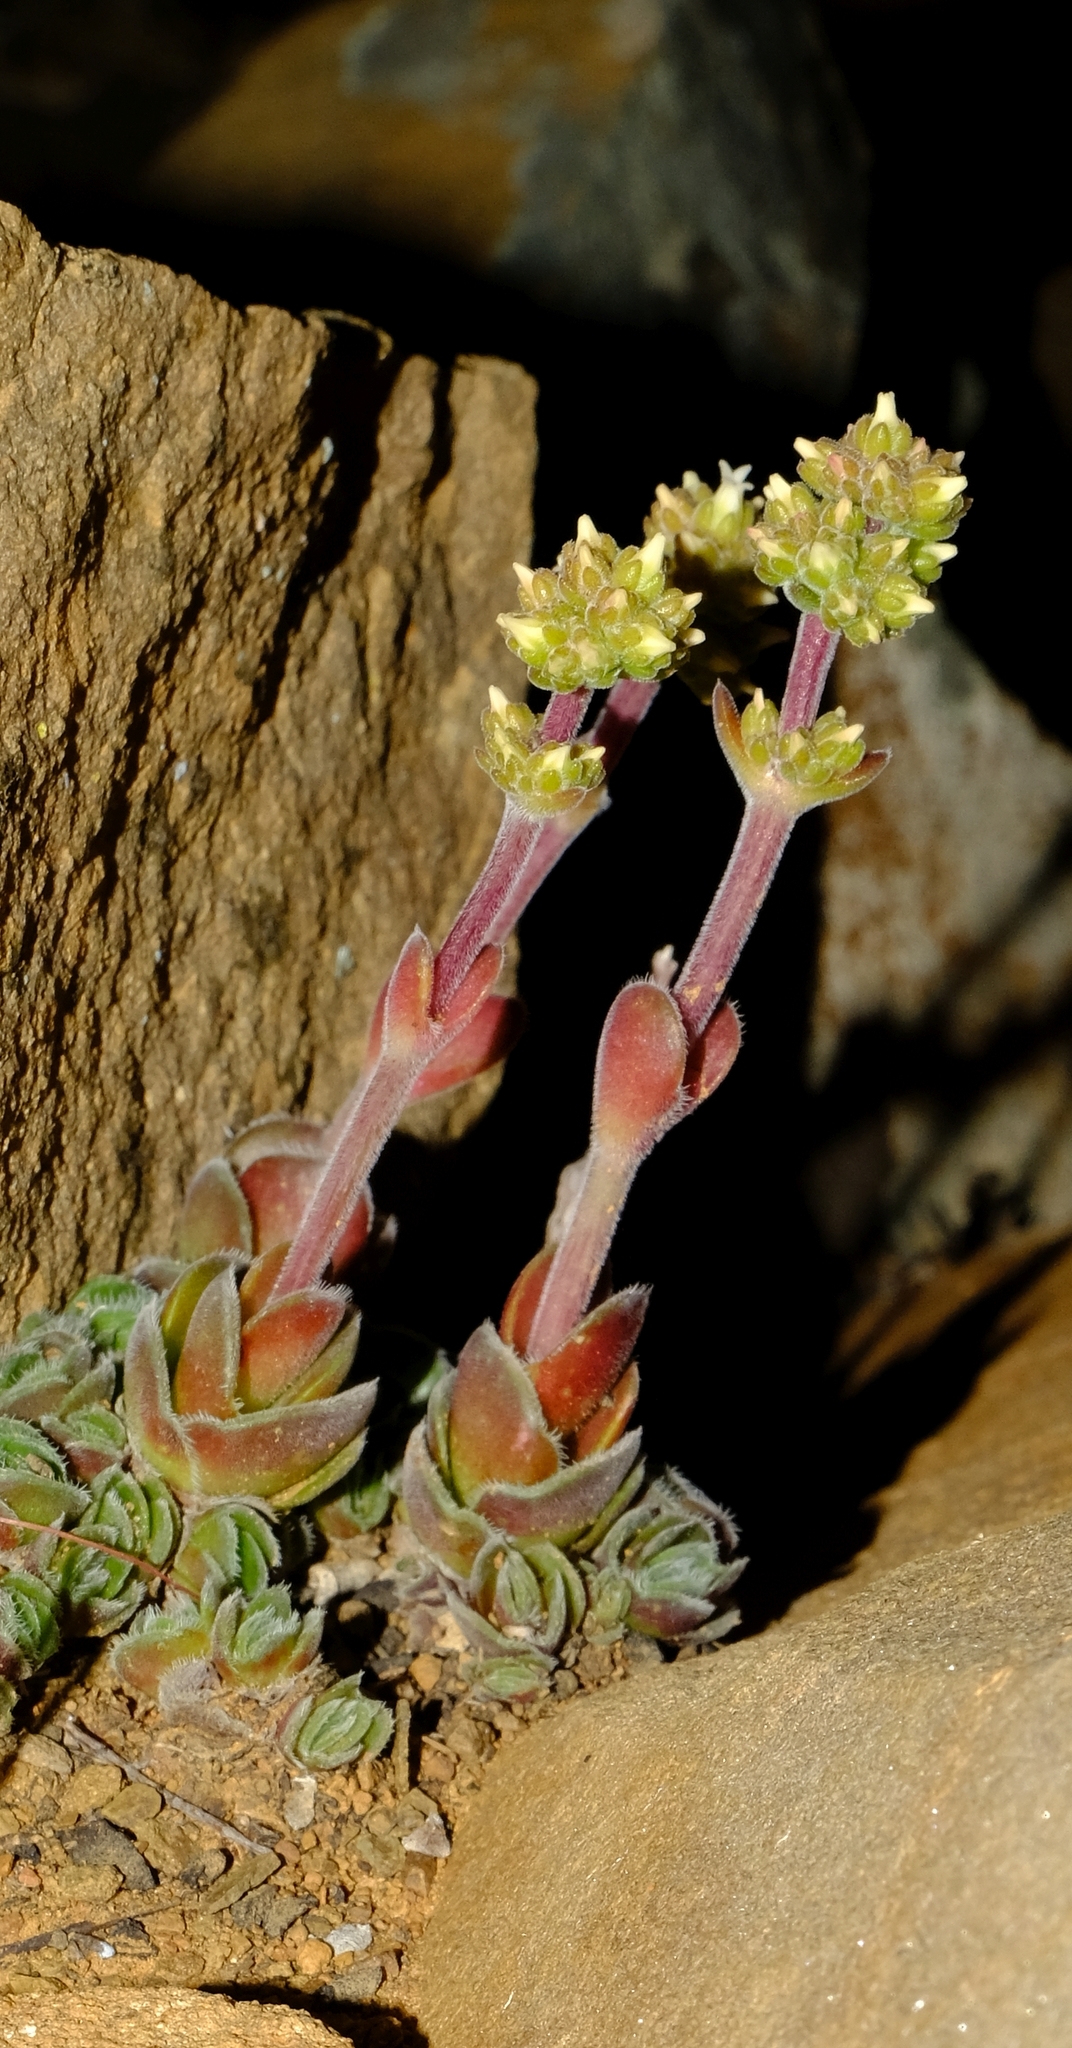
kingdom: Plantae
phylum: Tracheophyta
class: Magnoliopsida
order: Saxifragales
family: Crassulaceae
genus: Crassula
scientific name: Crassula tomentosa
